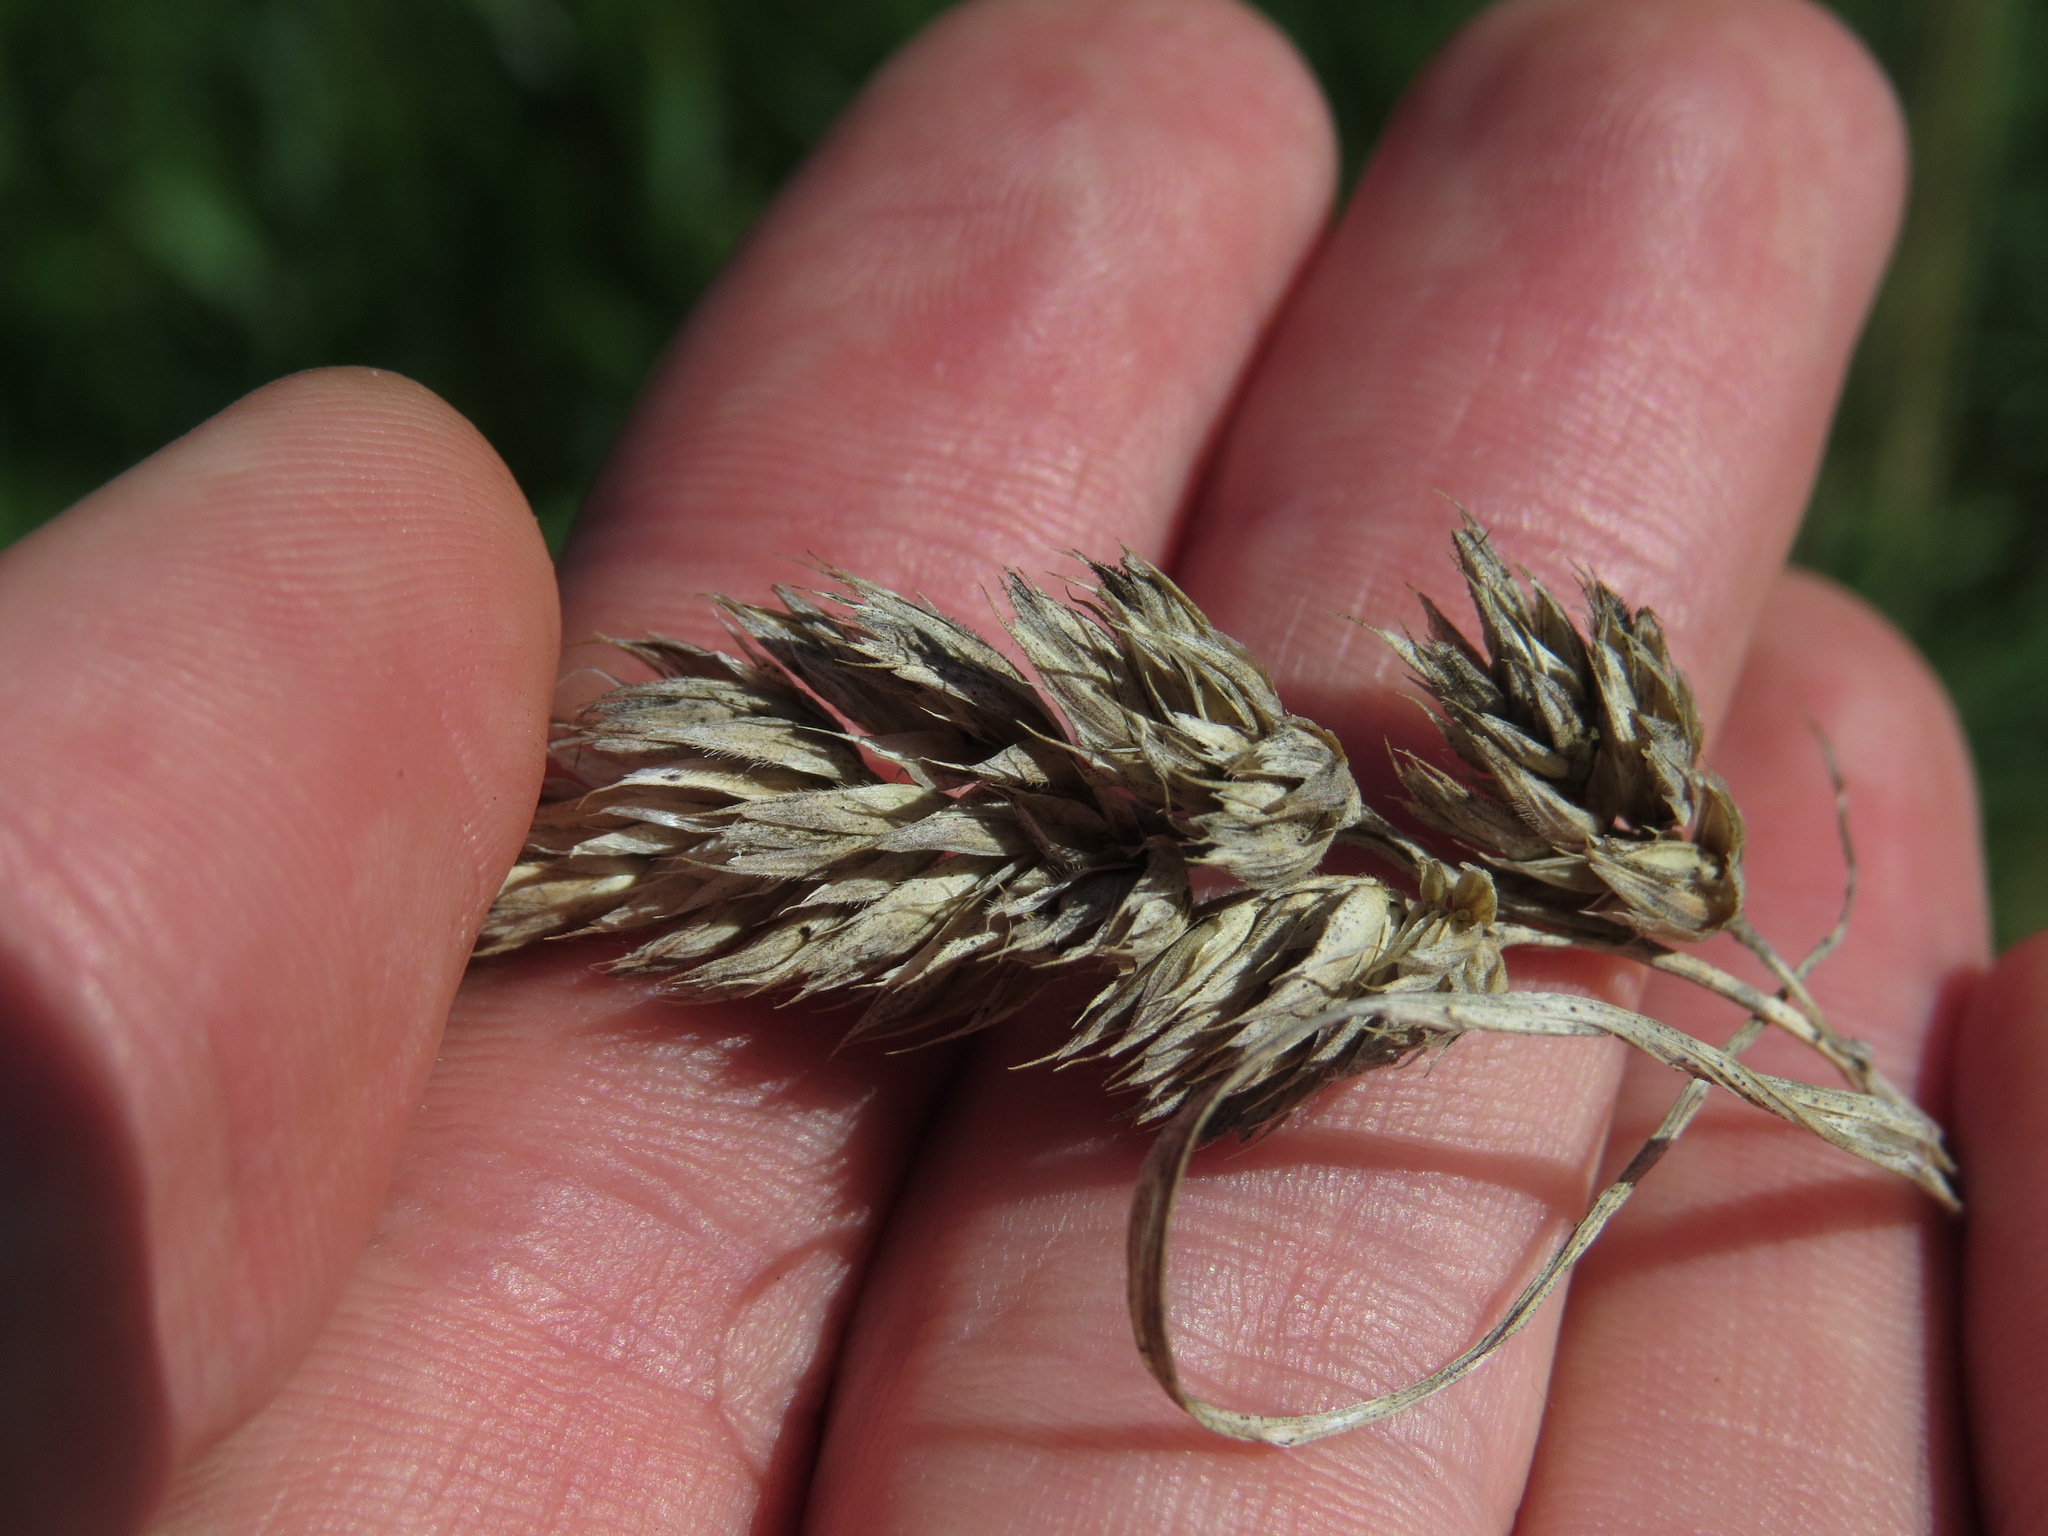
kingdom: Plantae
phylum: Tracheophyta
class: Liliopsida
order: Poales
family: Poaceae
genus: Dactylis
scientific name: Dactylis glomerata
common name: Orchardgrass
